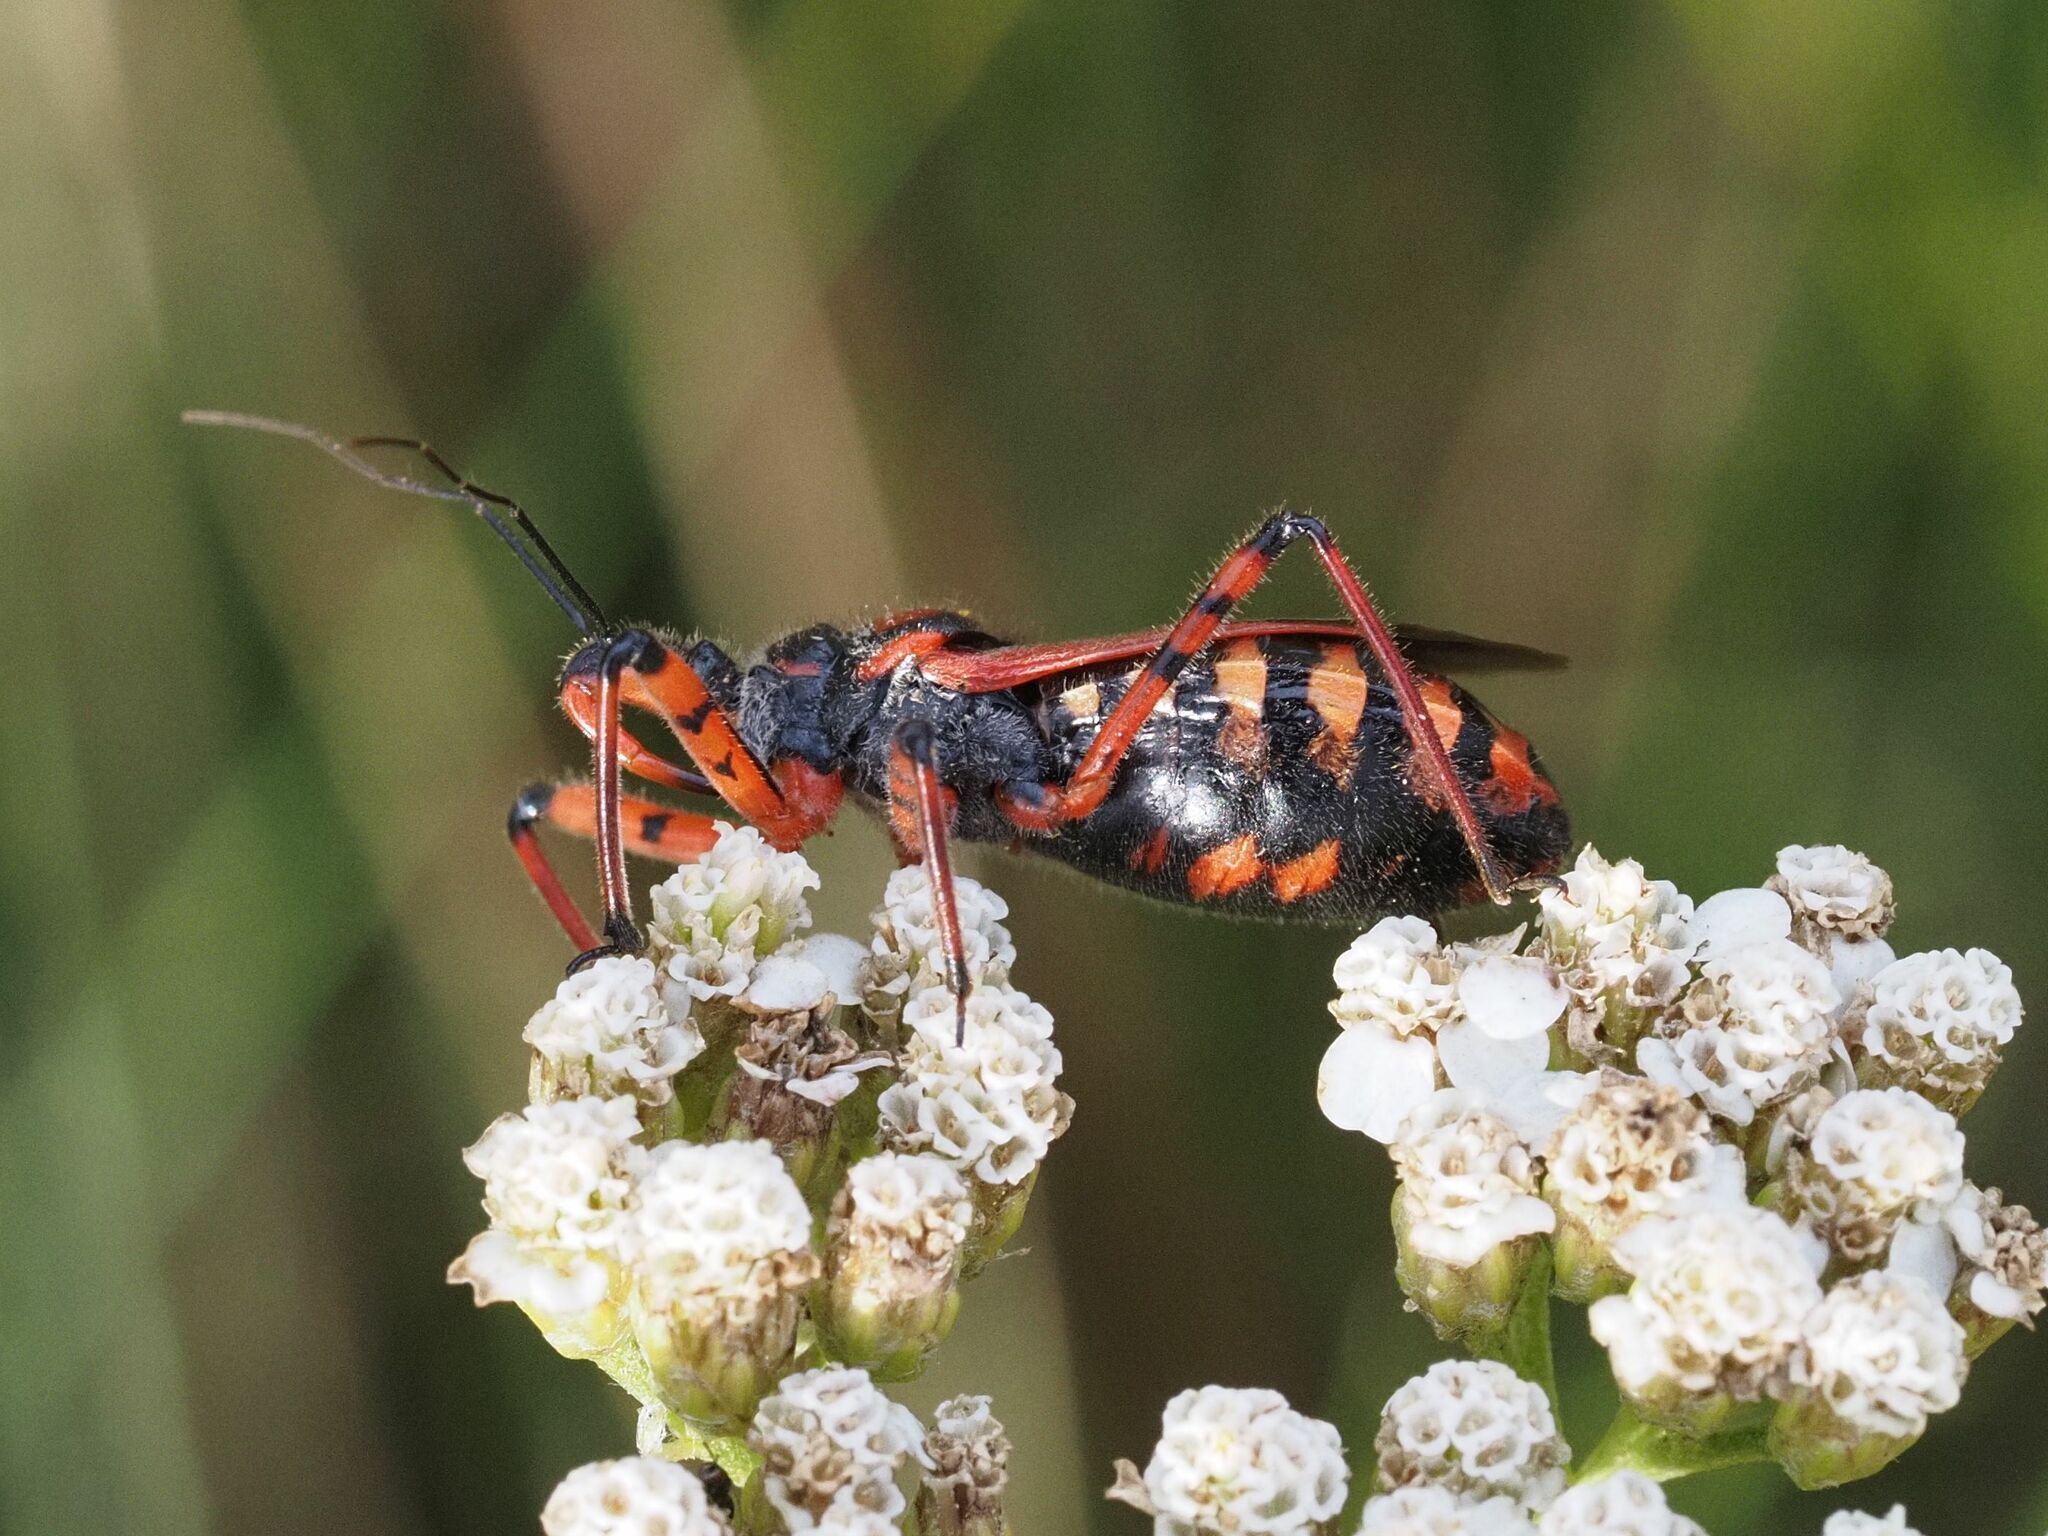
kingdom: Animalia
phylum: Arthropoda
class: Insecta
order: Hemiptera
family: Reduviidae
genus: Rhynocoris
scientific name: Rhynocoris iracundus
